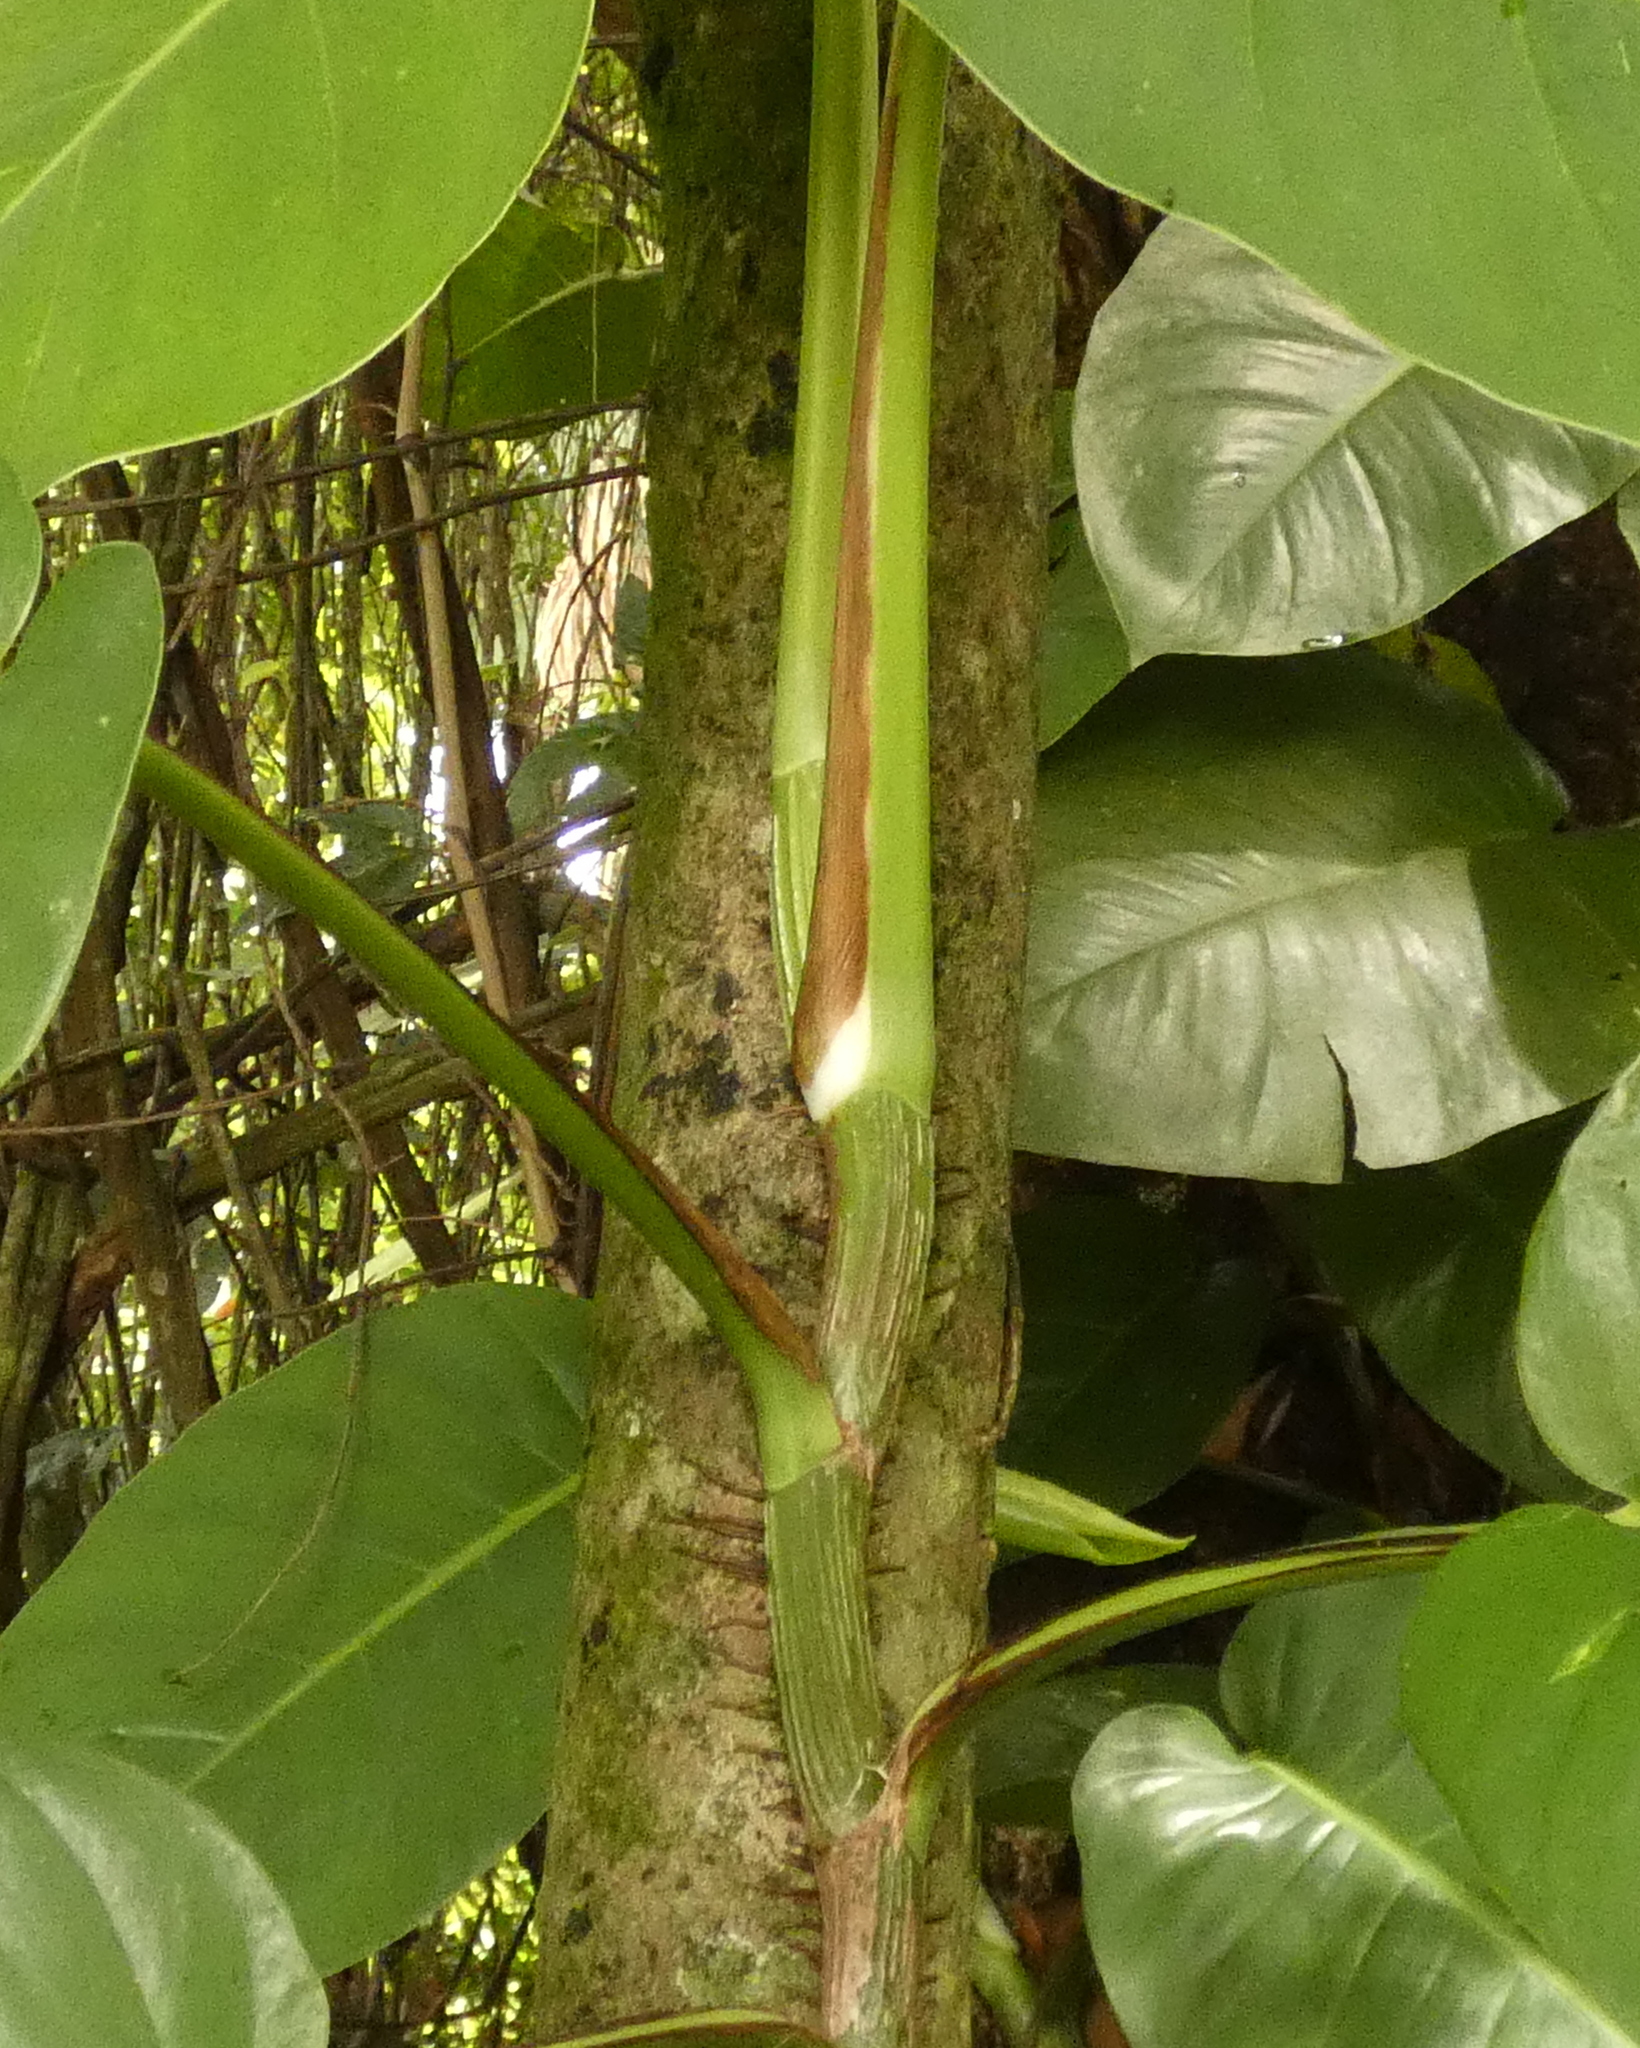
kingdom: Plantae
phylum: Tracheophyta
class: Liliopsida
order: Alismatales
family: Araceae
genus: Epipremnum
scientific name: Epipremnum aureum
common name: Golden hunter's-robe
